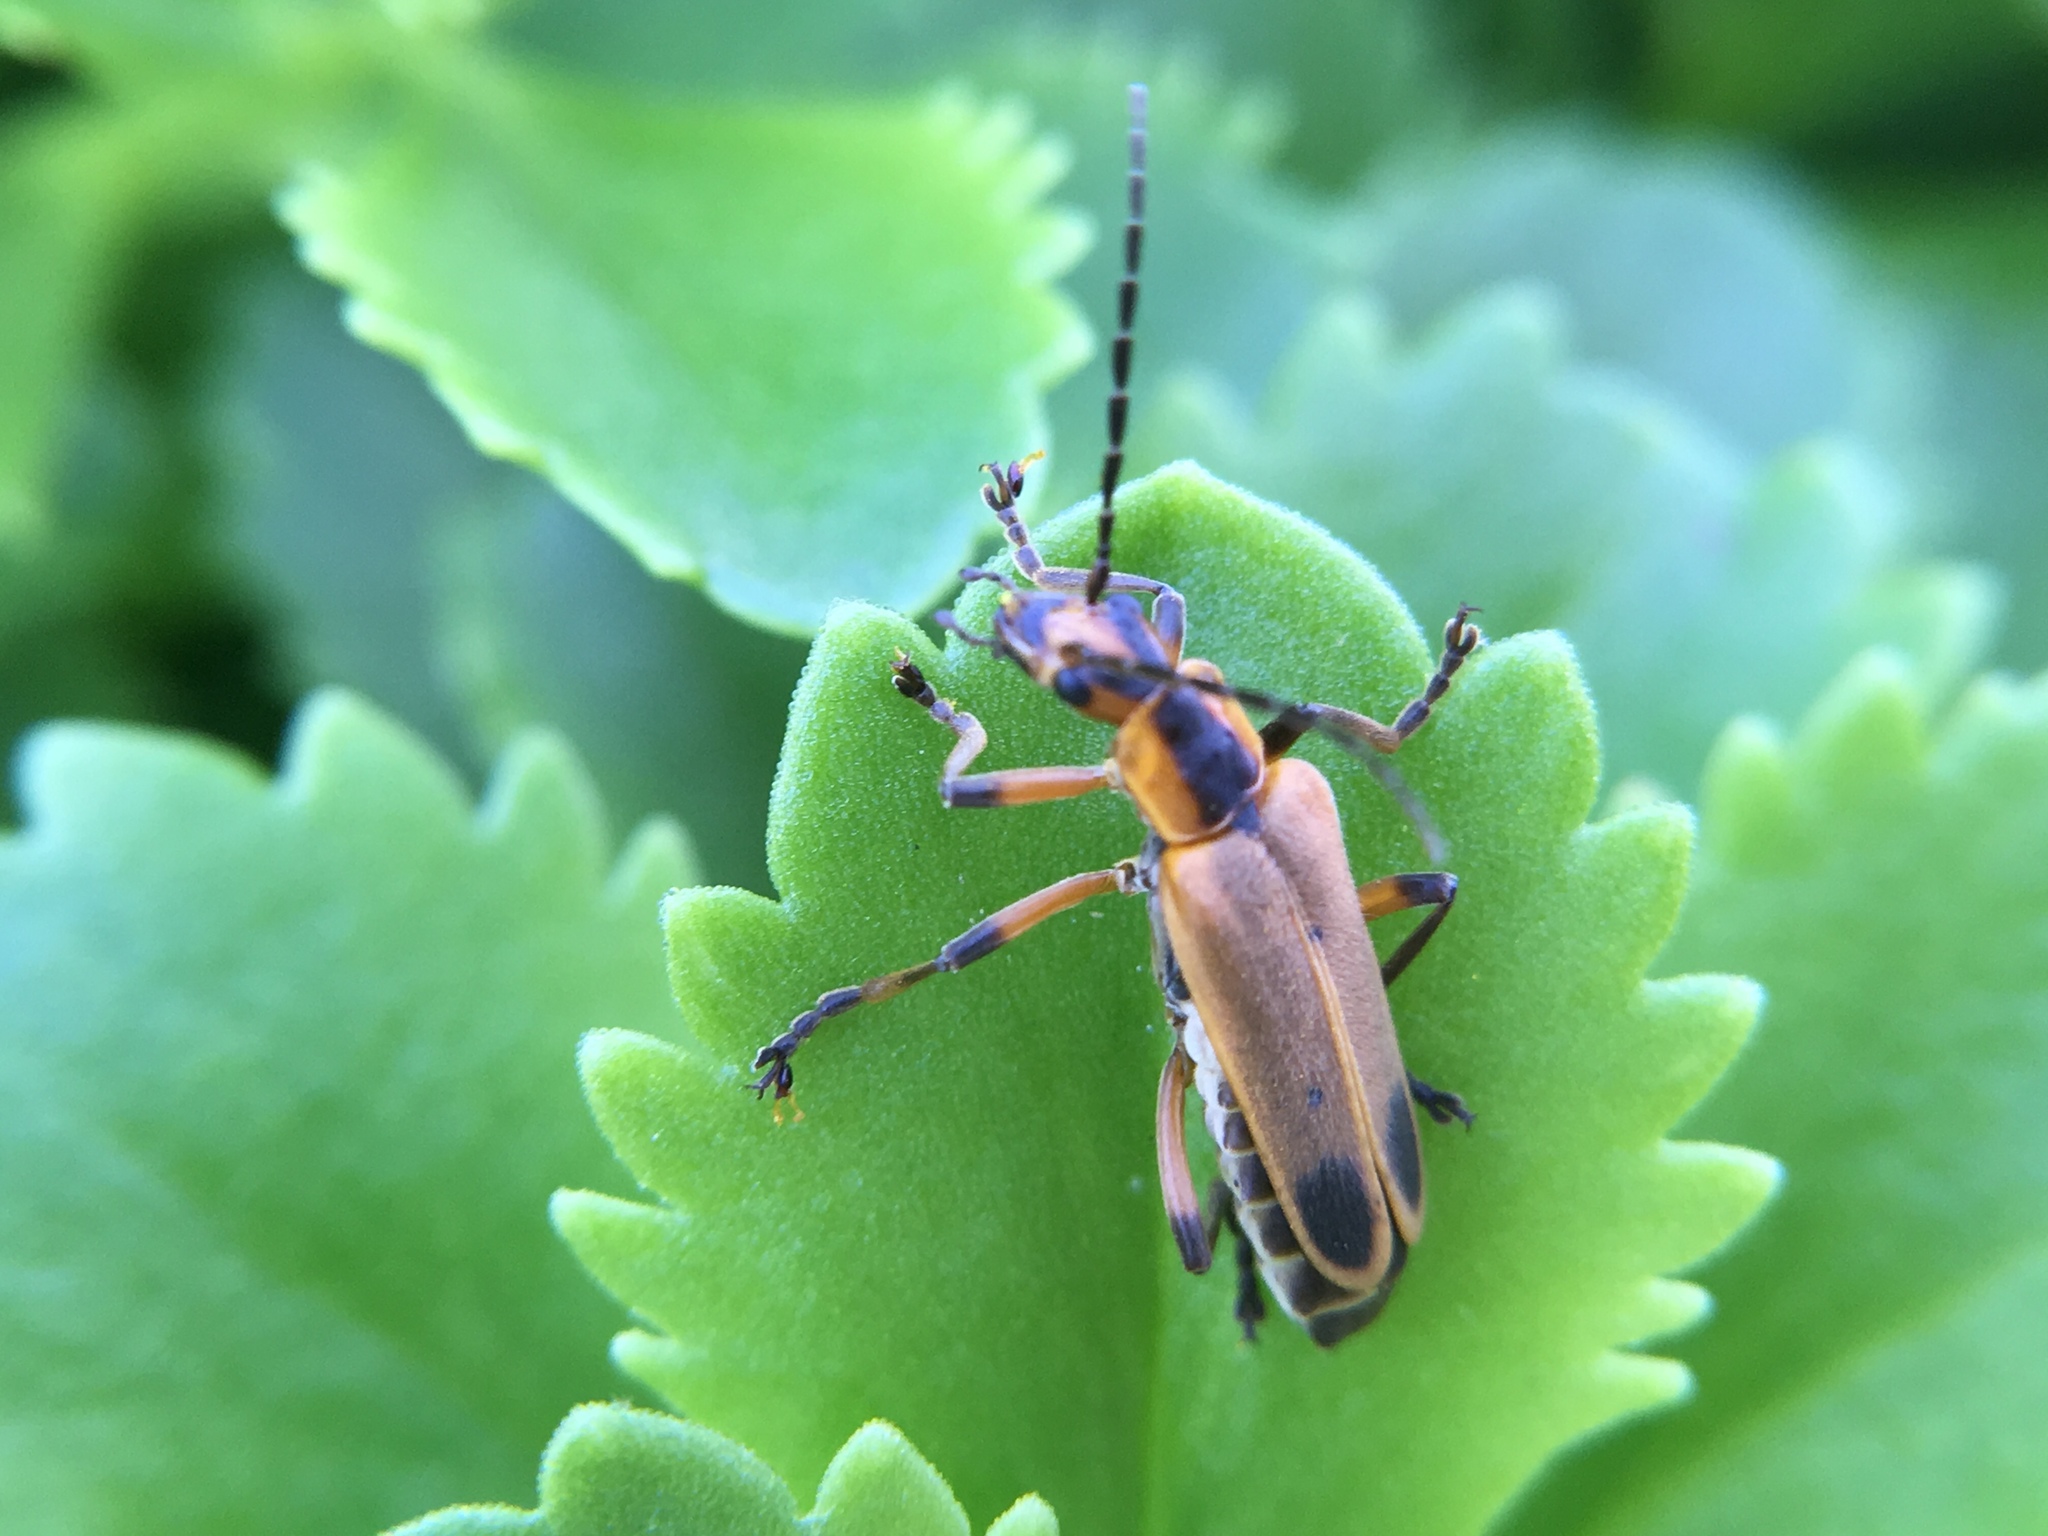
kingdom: Animalia
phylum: Arthropoda
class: Insecta
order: Coleoptera
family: Cantharidae
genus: Chauliognathus
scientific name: Chauliognathus marginatus
